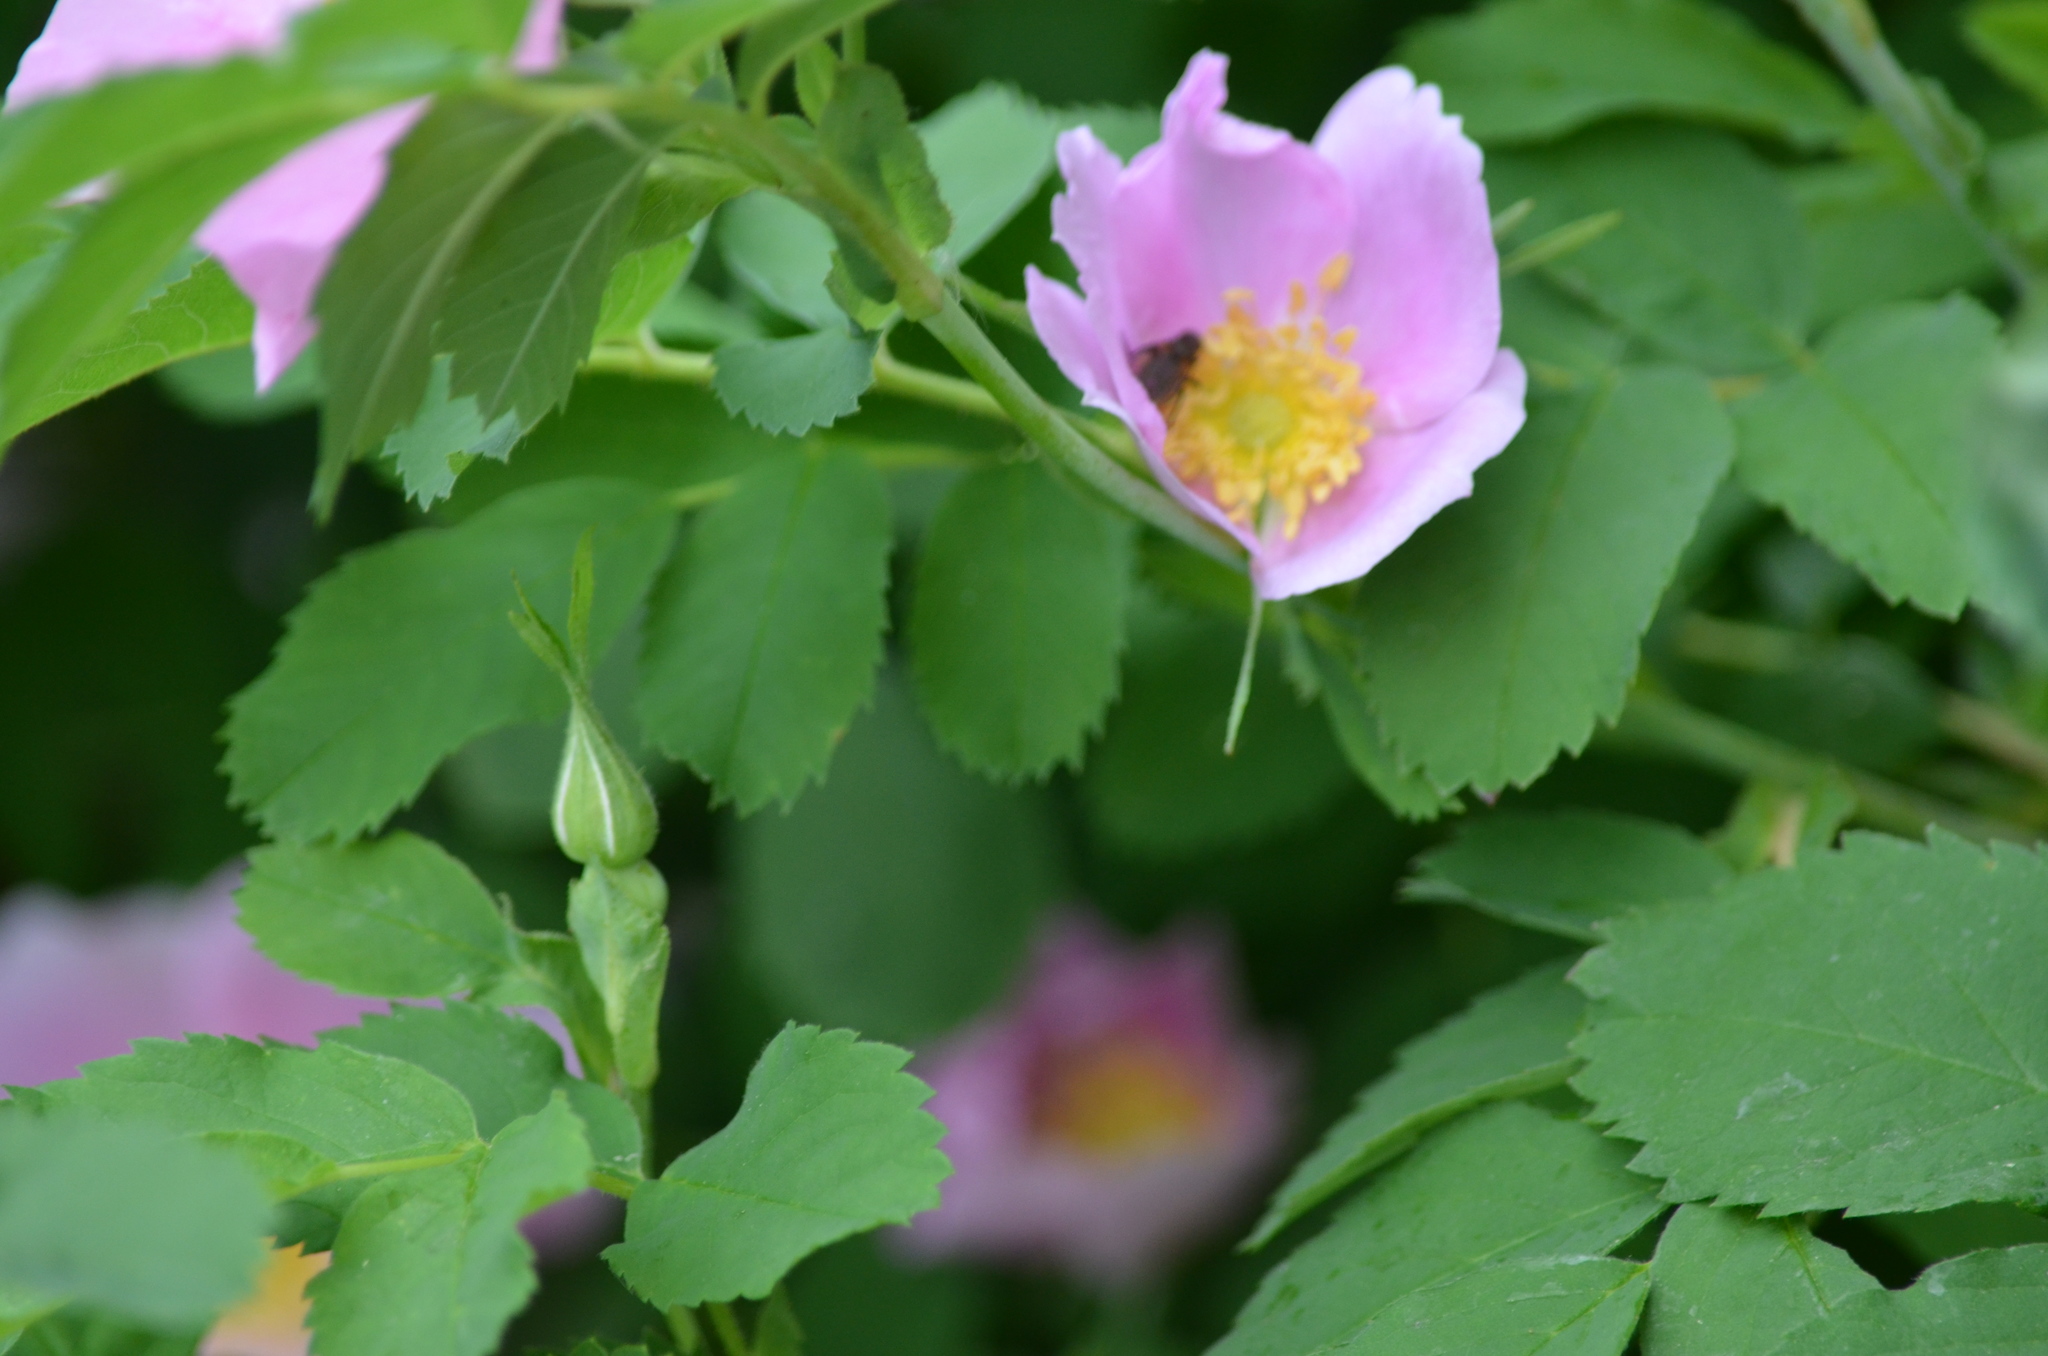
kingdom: Plantae
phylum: Tracheophyta
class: Magnoliopsida
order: Rosales
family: Rosaceae
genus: Rosa
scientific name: Rosa woodsii
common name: Woods's rose
